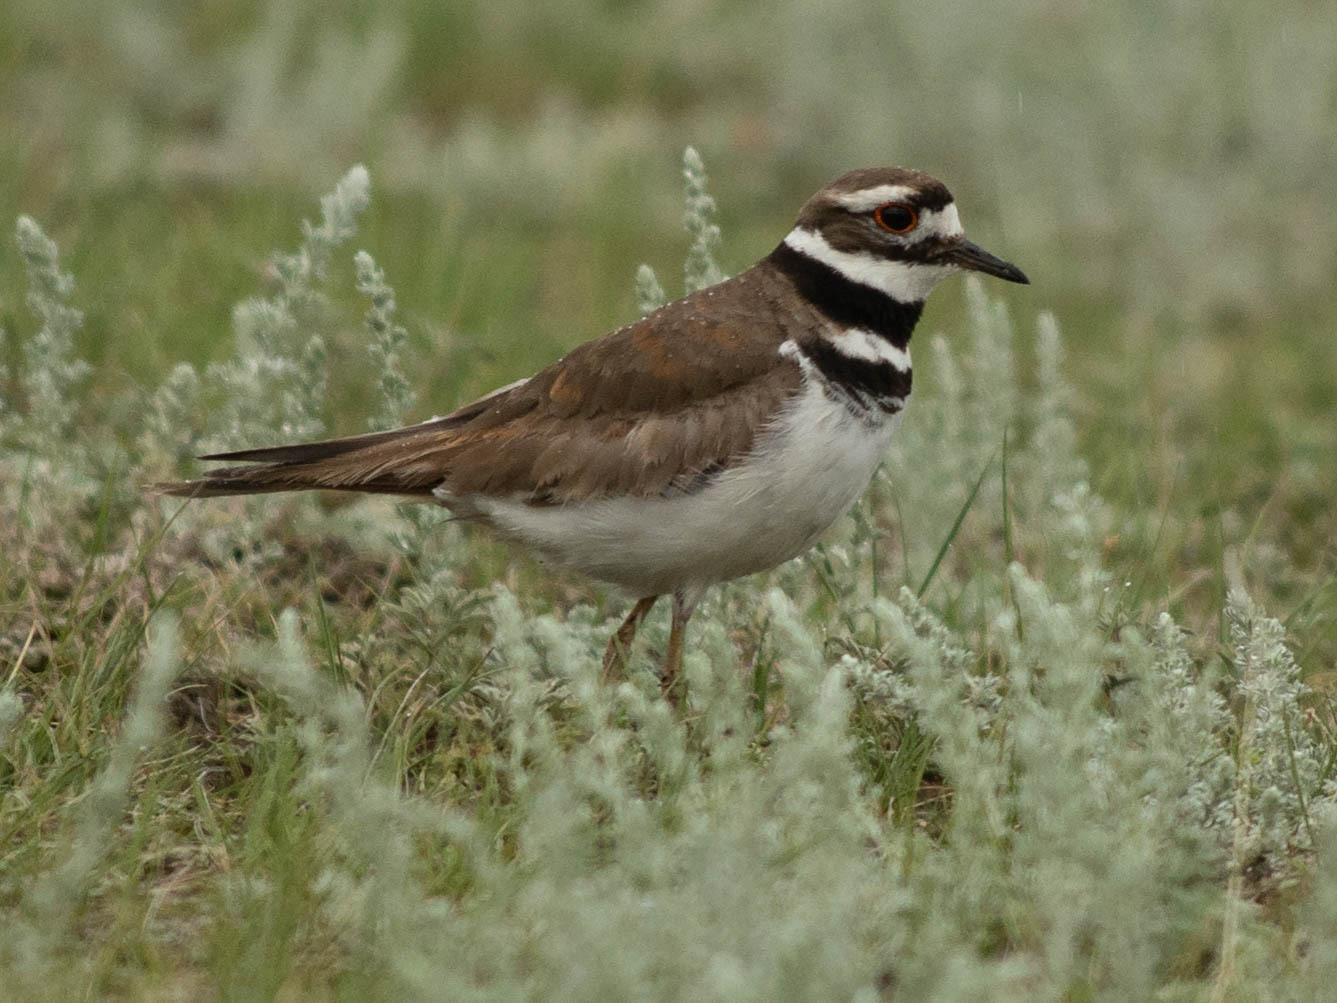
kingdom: Animalia
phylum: Chordata
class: Aves
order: Charadriiformes
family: Charadriidae
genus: Charadrius
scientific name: Charadrius vociferus
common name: Killdeer
